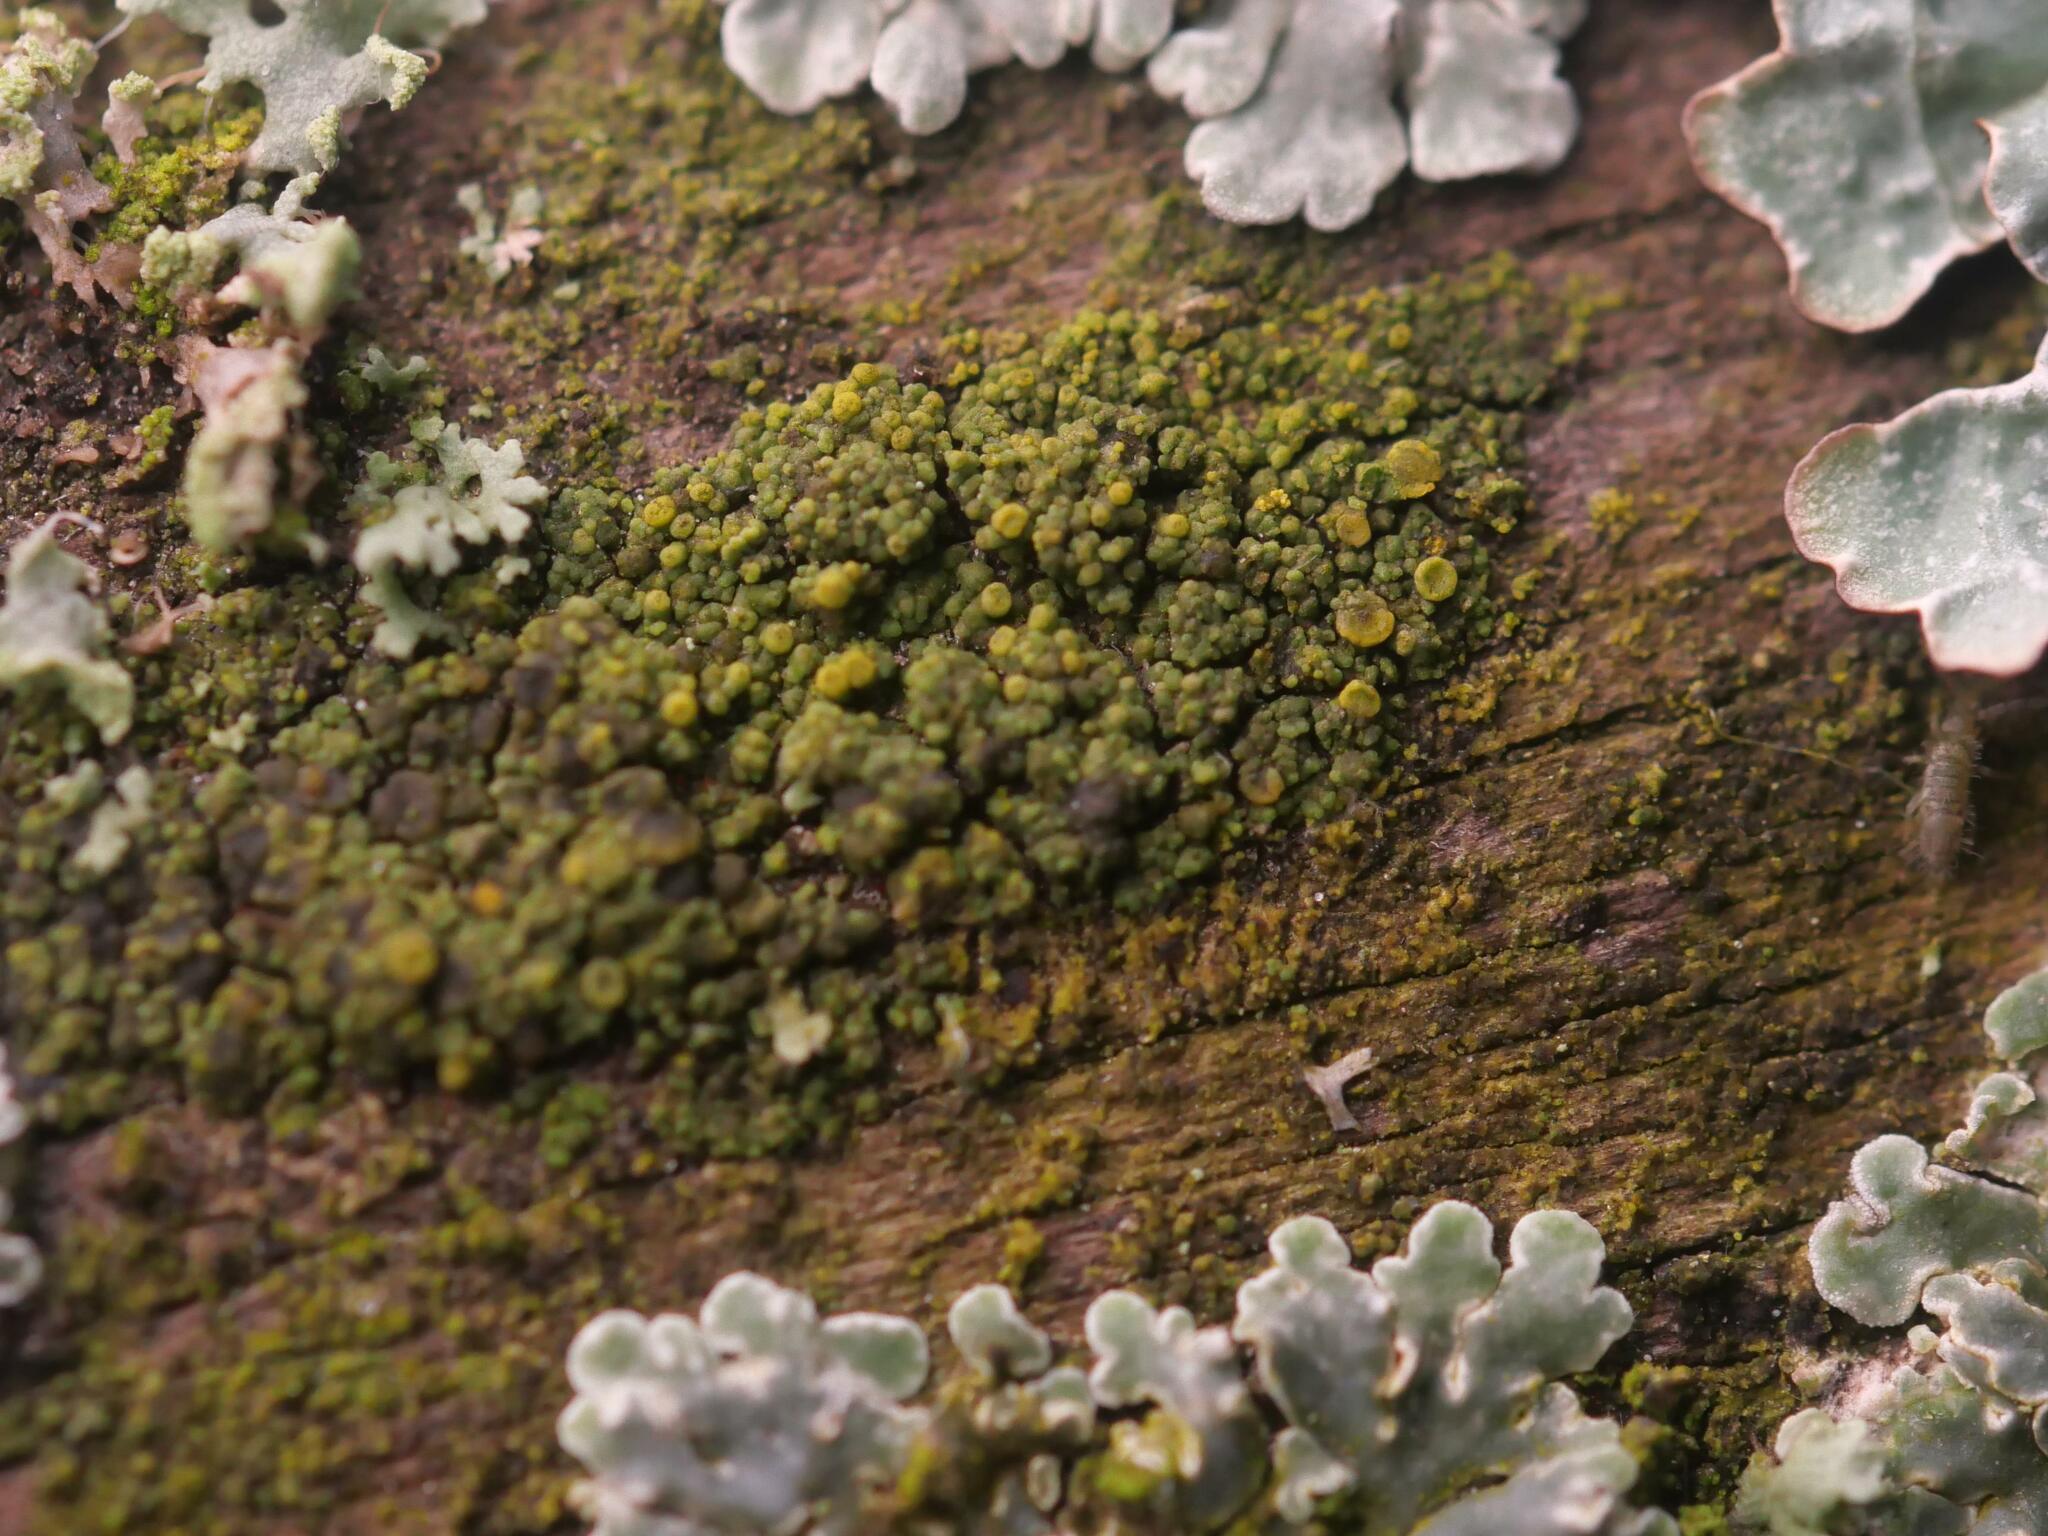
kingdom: Fungi
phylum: Ascomycota
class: Candelariomycetes
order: Candelariales
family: Candelariaceae
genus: Candelariella
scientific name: Candelariella vitellina
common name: Common goldspeck
